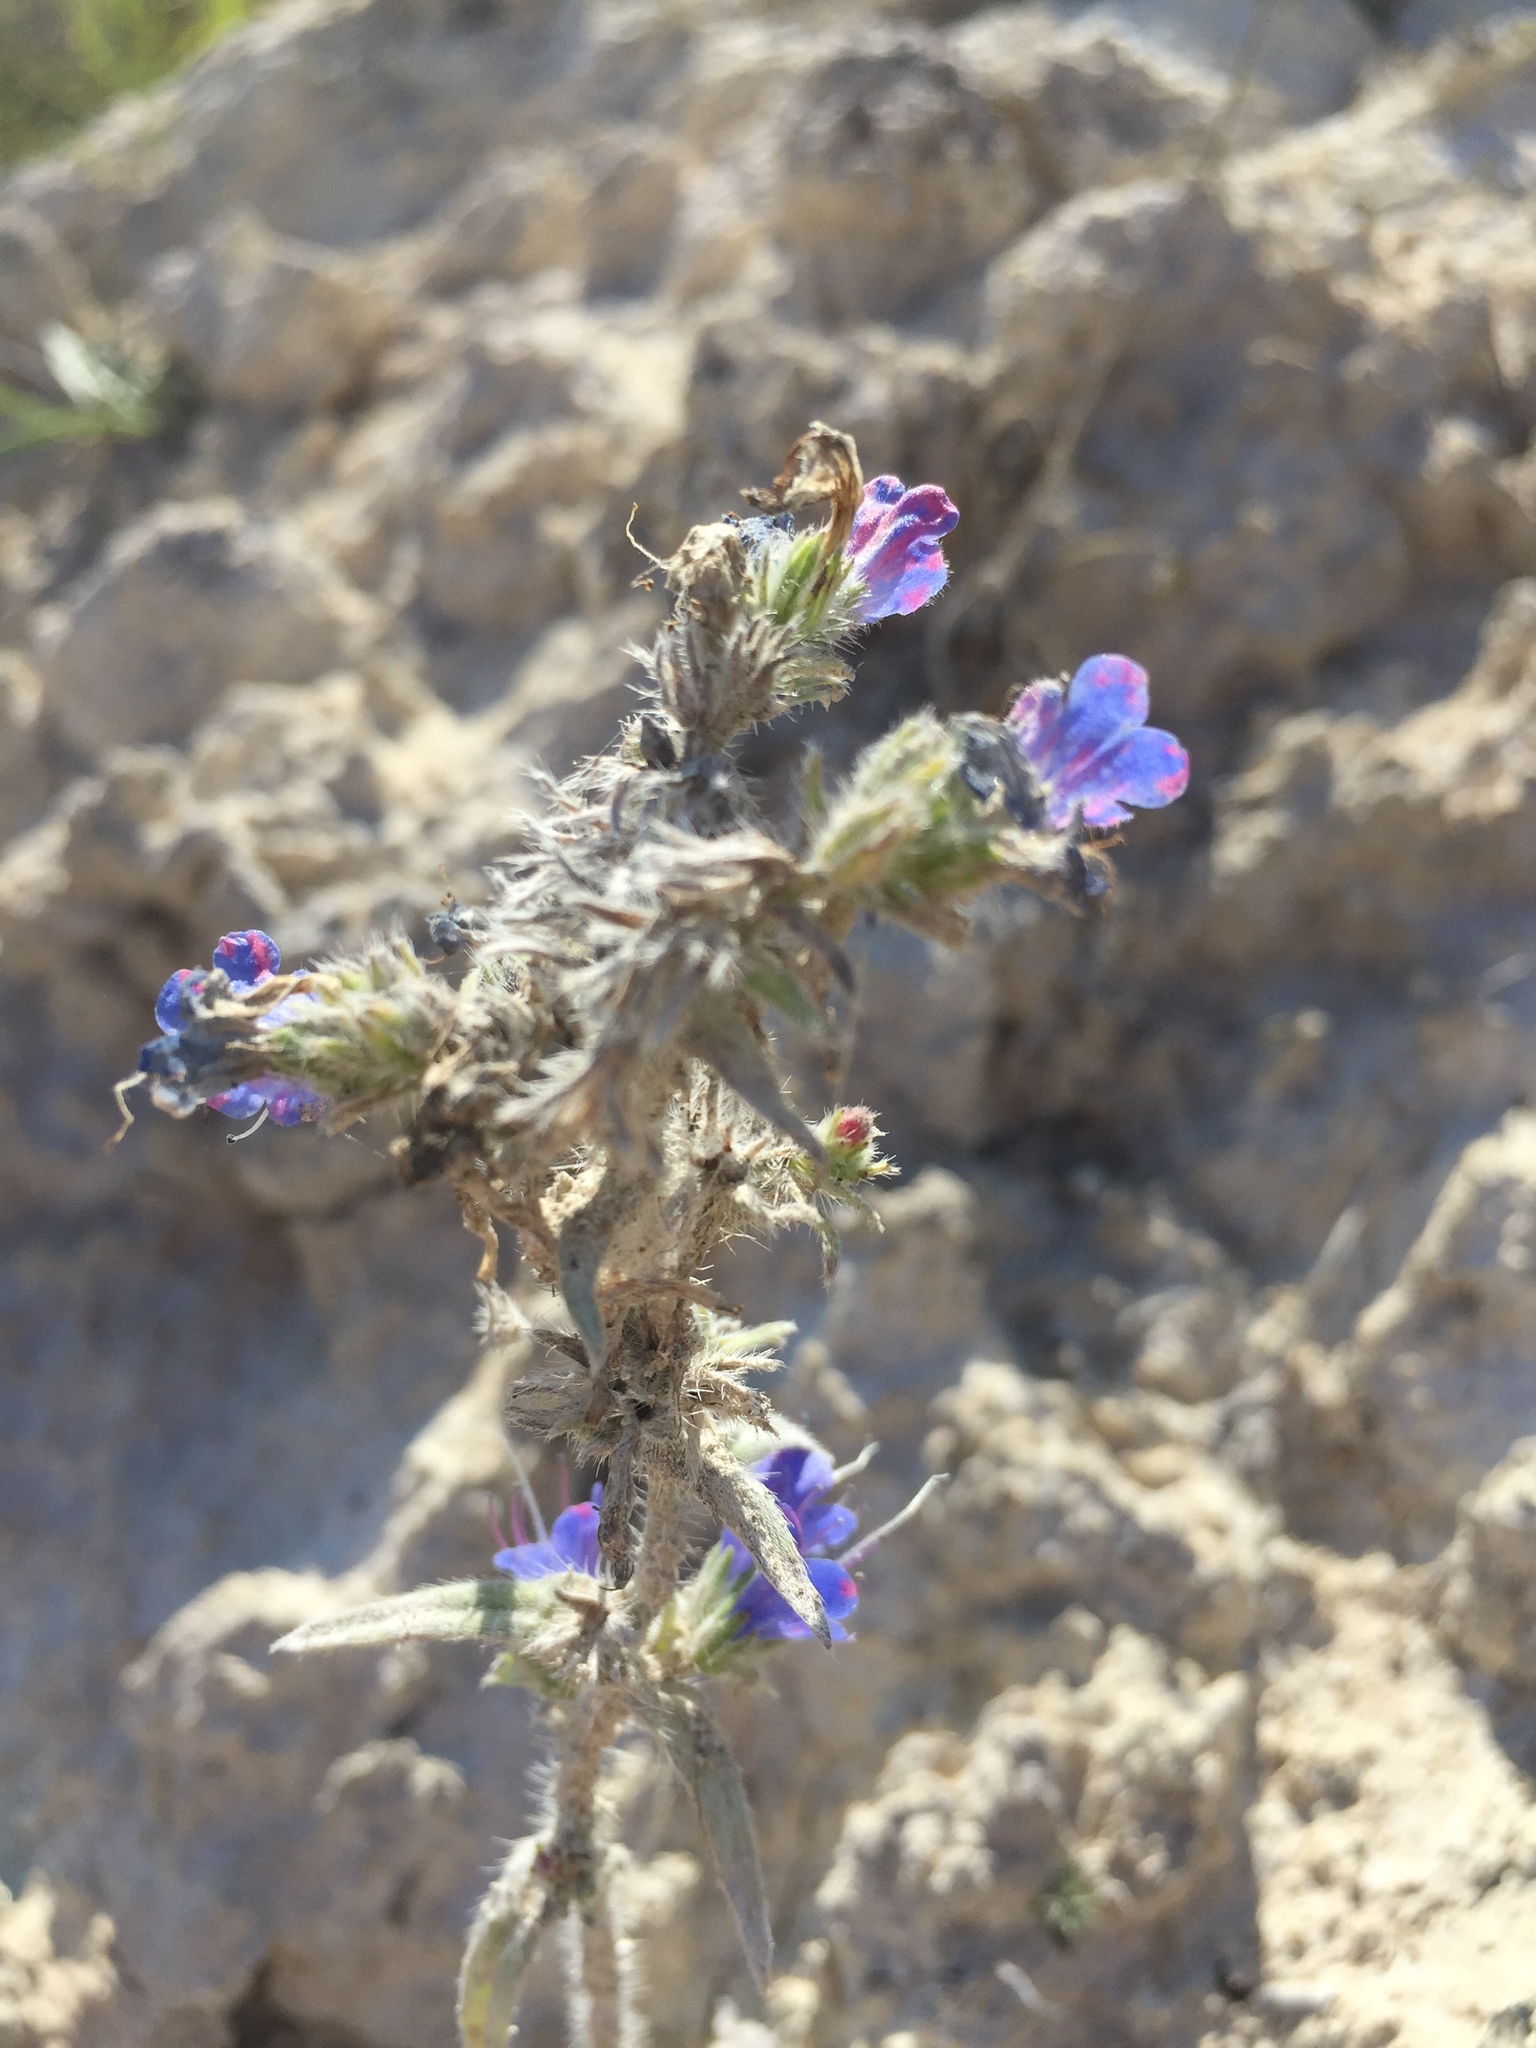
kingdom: Plantae
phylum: Tracheophyta
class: Magnoliopsida
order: Boraginales
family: Boraginaceae
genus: Echium
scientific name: Echium vulgare
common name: Common viper's bugloss
